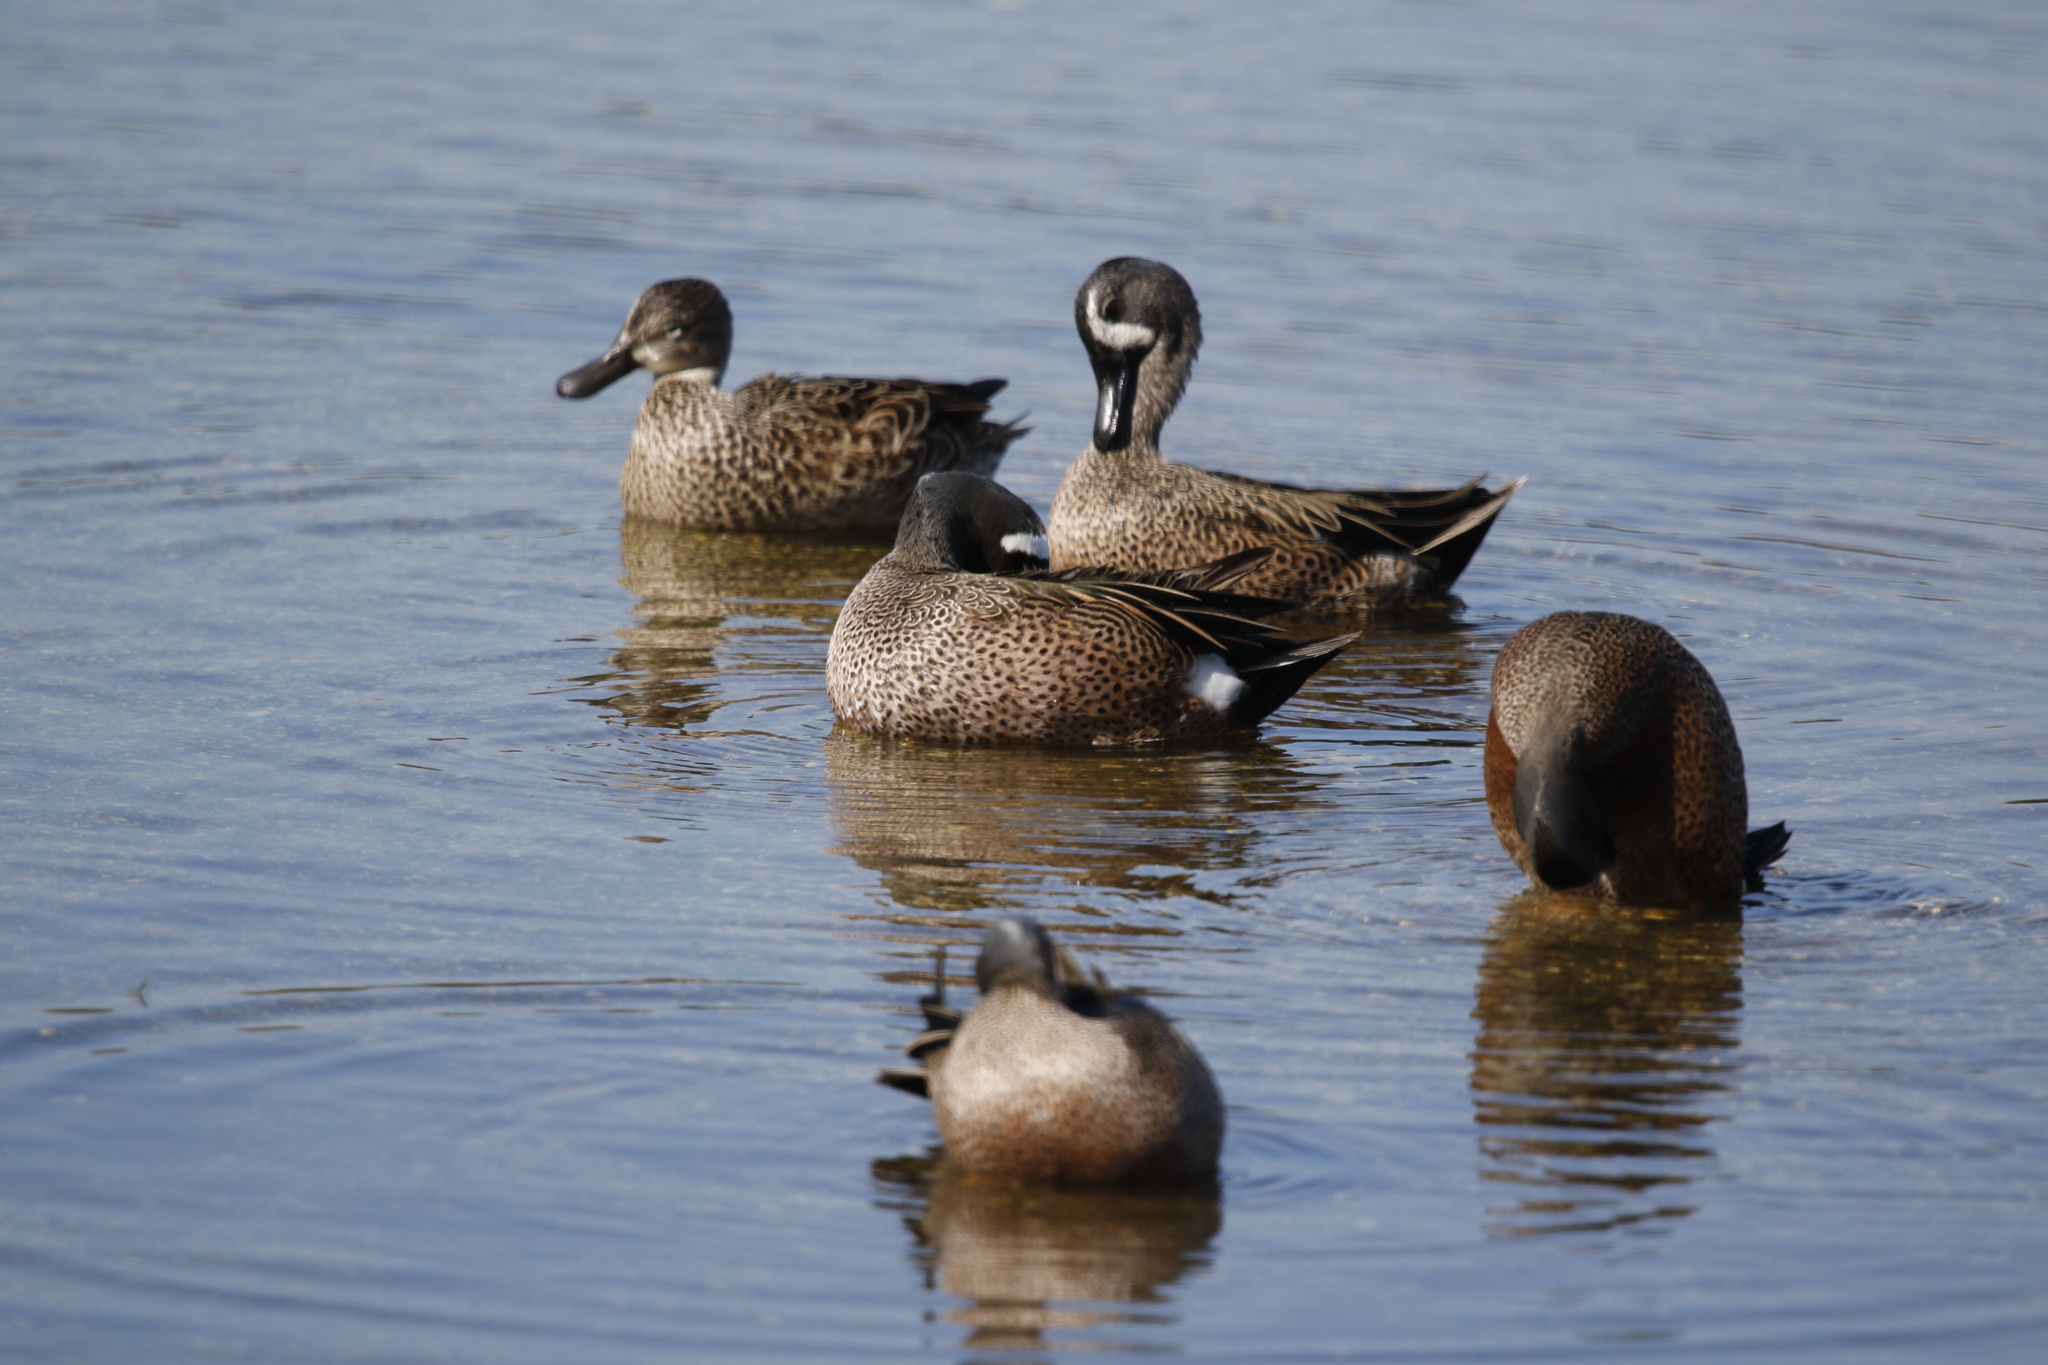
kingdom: Animalia
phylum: Chordata
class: Aves
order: Anseriformes
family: Anatidae
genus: Spatula
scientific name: Spatula discors
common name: Blue-winged teal
